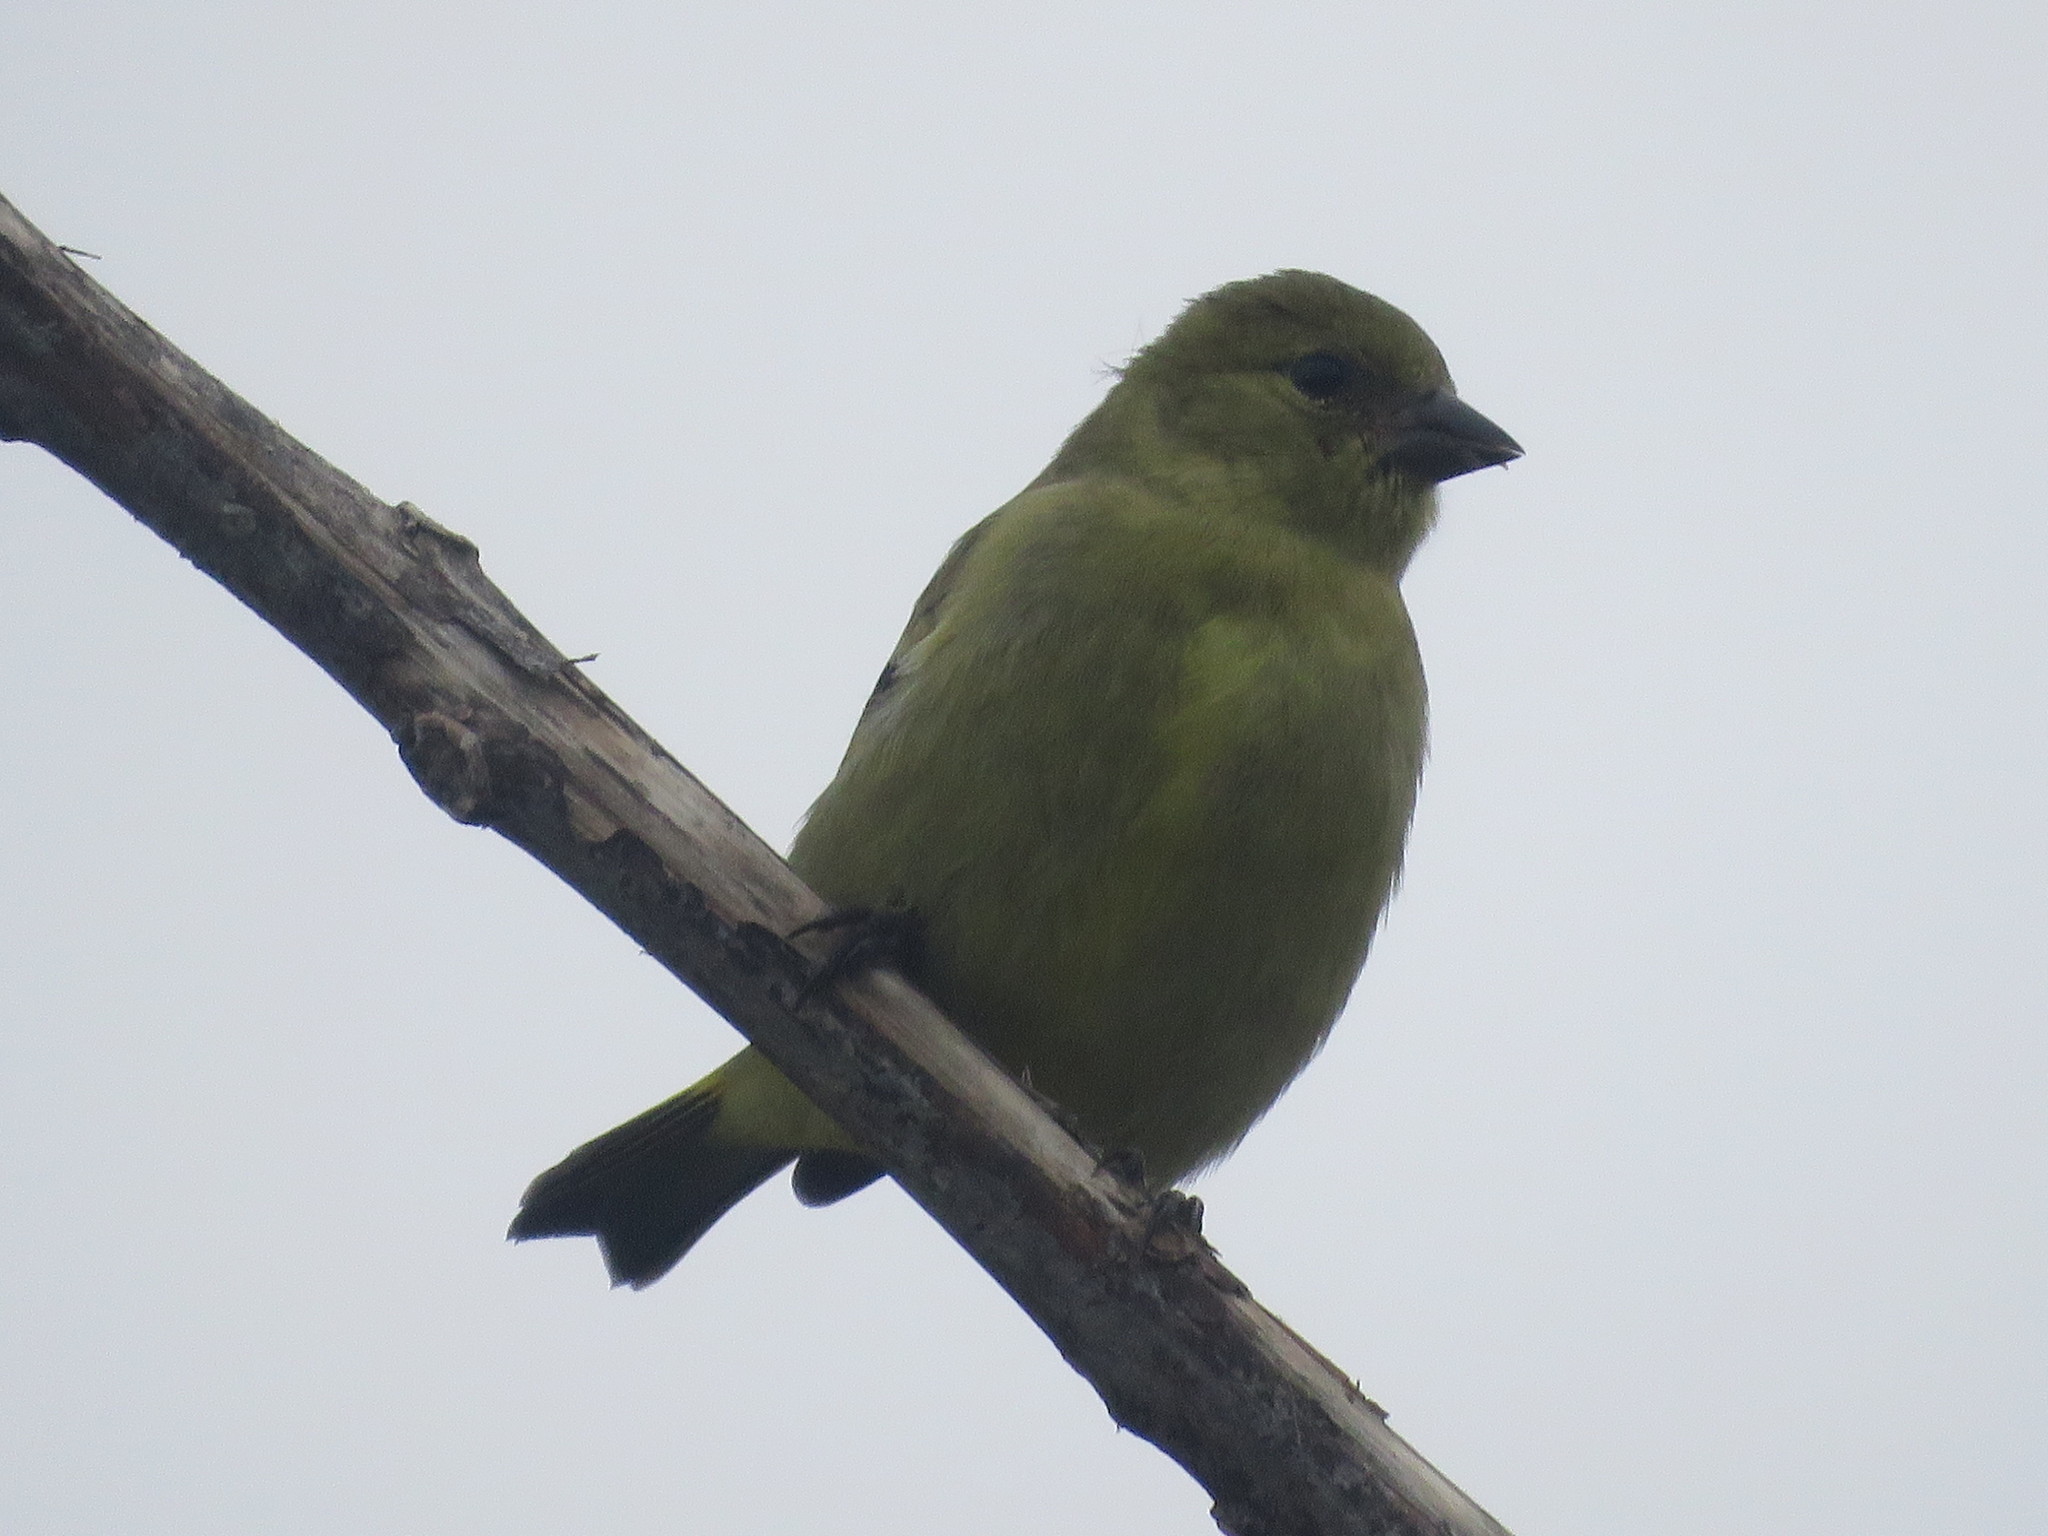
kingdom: Animalia
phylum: Chordata
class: Aves
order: Passeriformes
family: Fringillidae
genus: Spinus
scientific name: Spinus magellanicus
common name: Hooded siskin
